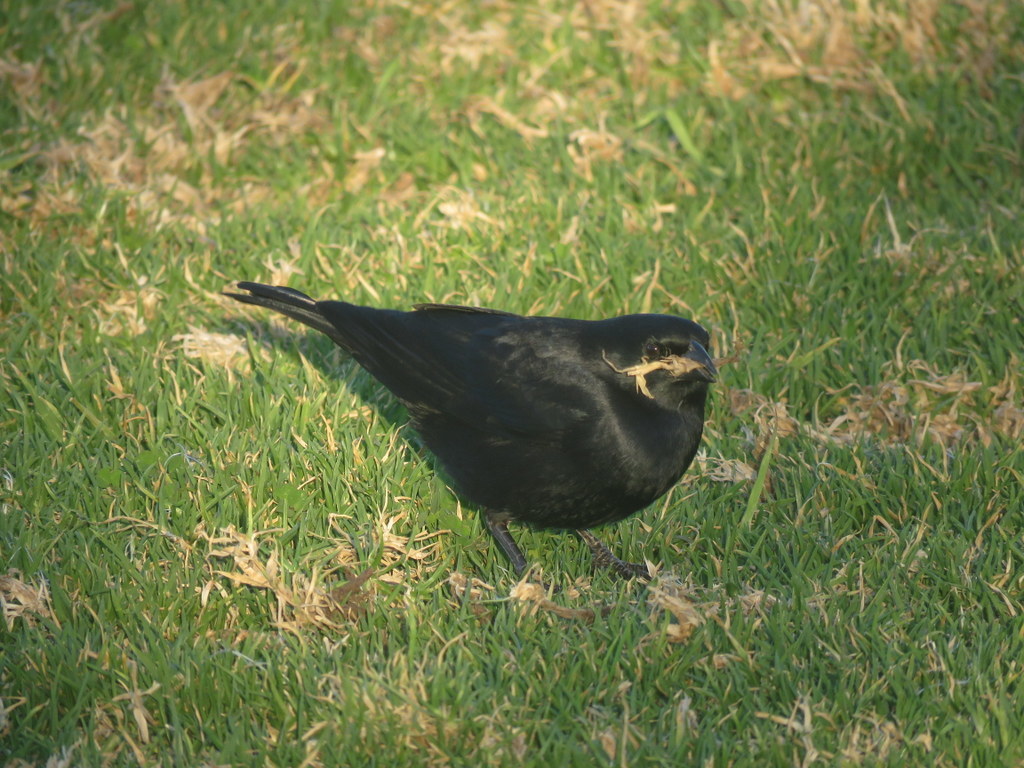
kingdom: Animalia
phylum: Chordata
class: Aves
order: Passeriformes
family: Icteridae
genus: Molothrus
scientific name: Molothrus rufoaxillaris
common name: Screaming cowbird
